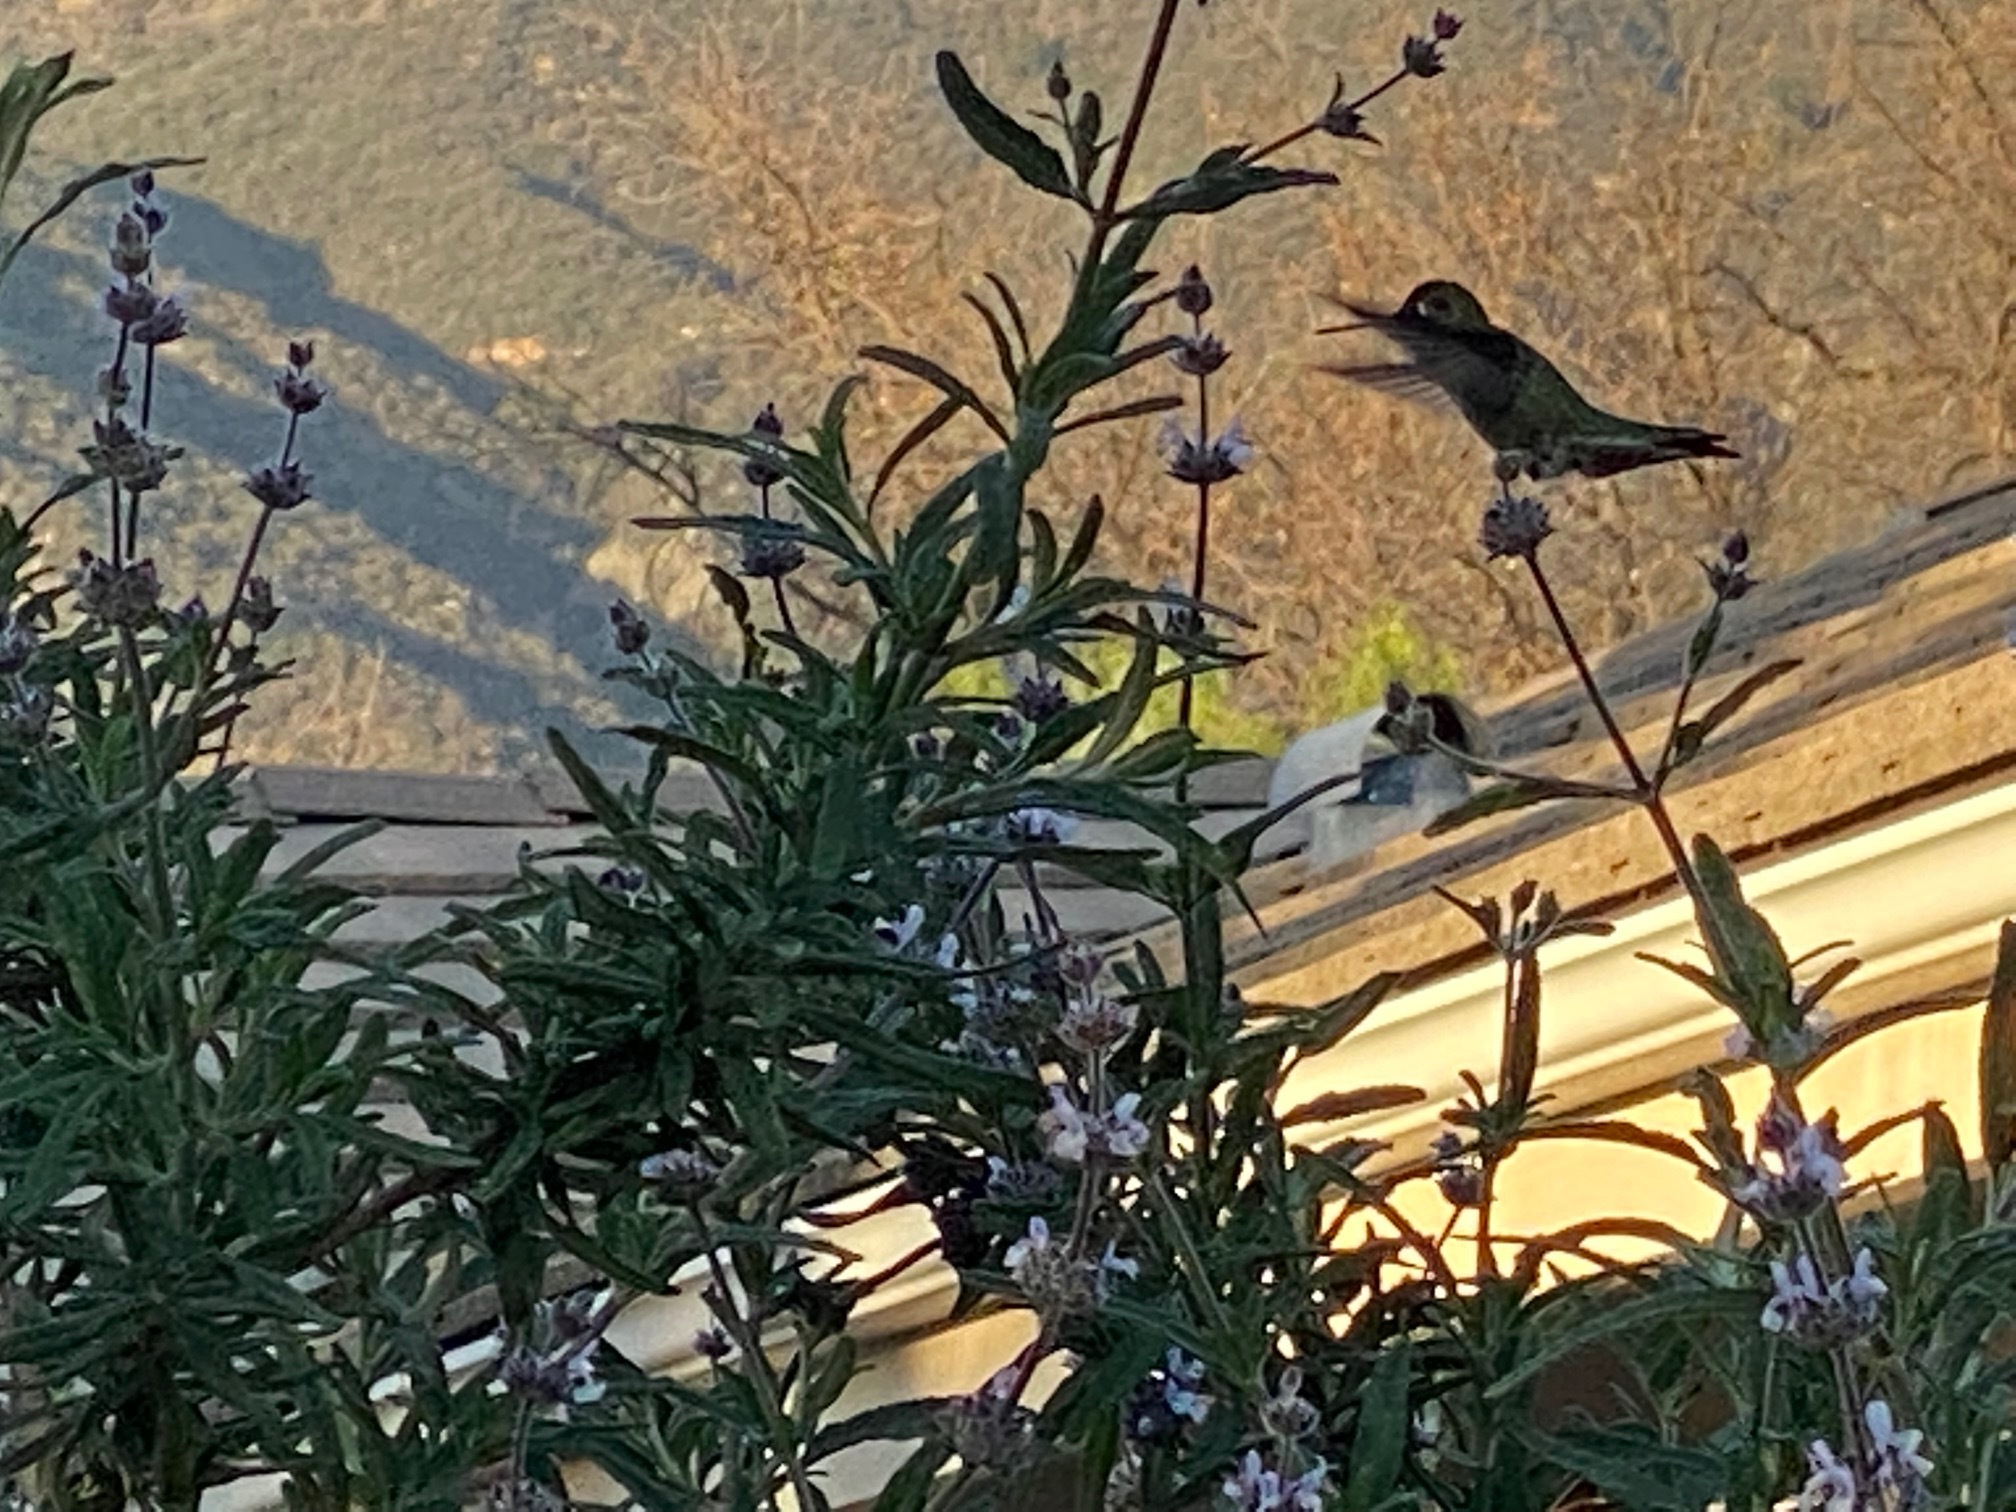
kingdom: Animalia
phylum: Chordata
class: Aves
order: Apodiformes
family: Trochilidae
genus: Calypte
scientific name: Calypte anna
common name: Anna's hummingbird
